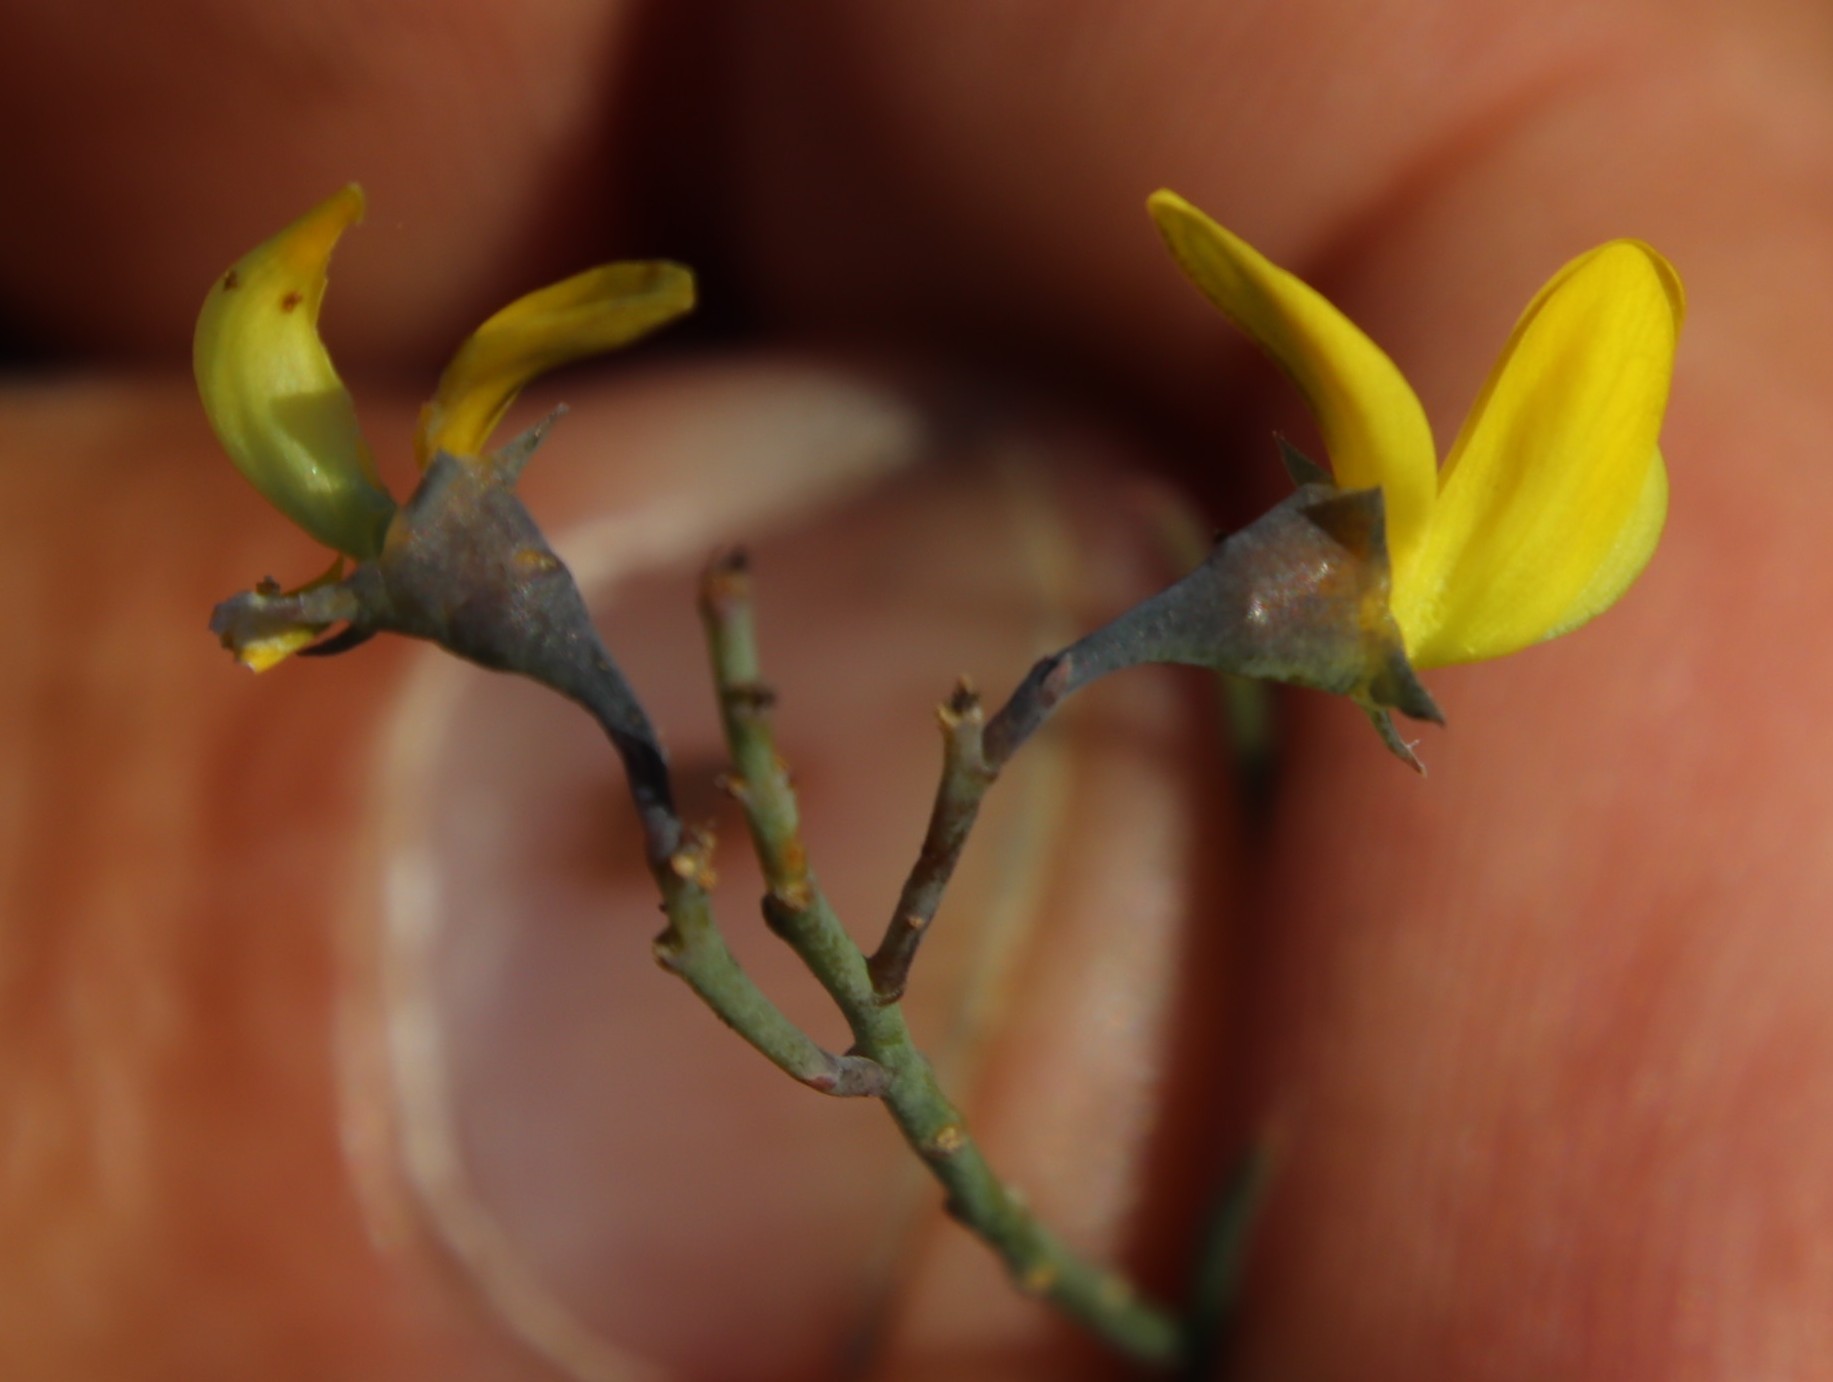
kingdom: Plantae
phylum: Tracheophyta
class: Magnoliopsida
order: Fabales
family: Fabaceae
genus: Lebeckia
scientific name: Lebeckia contaminata
